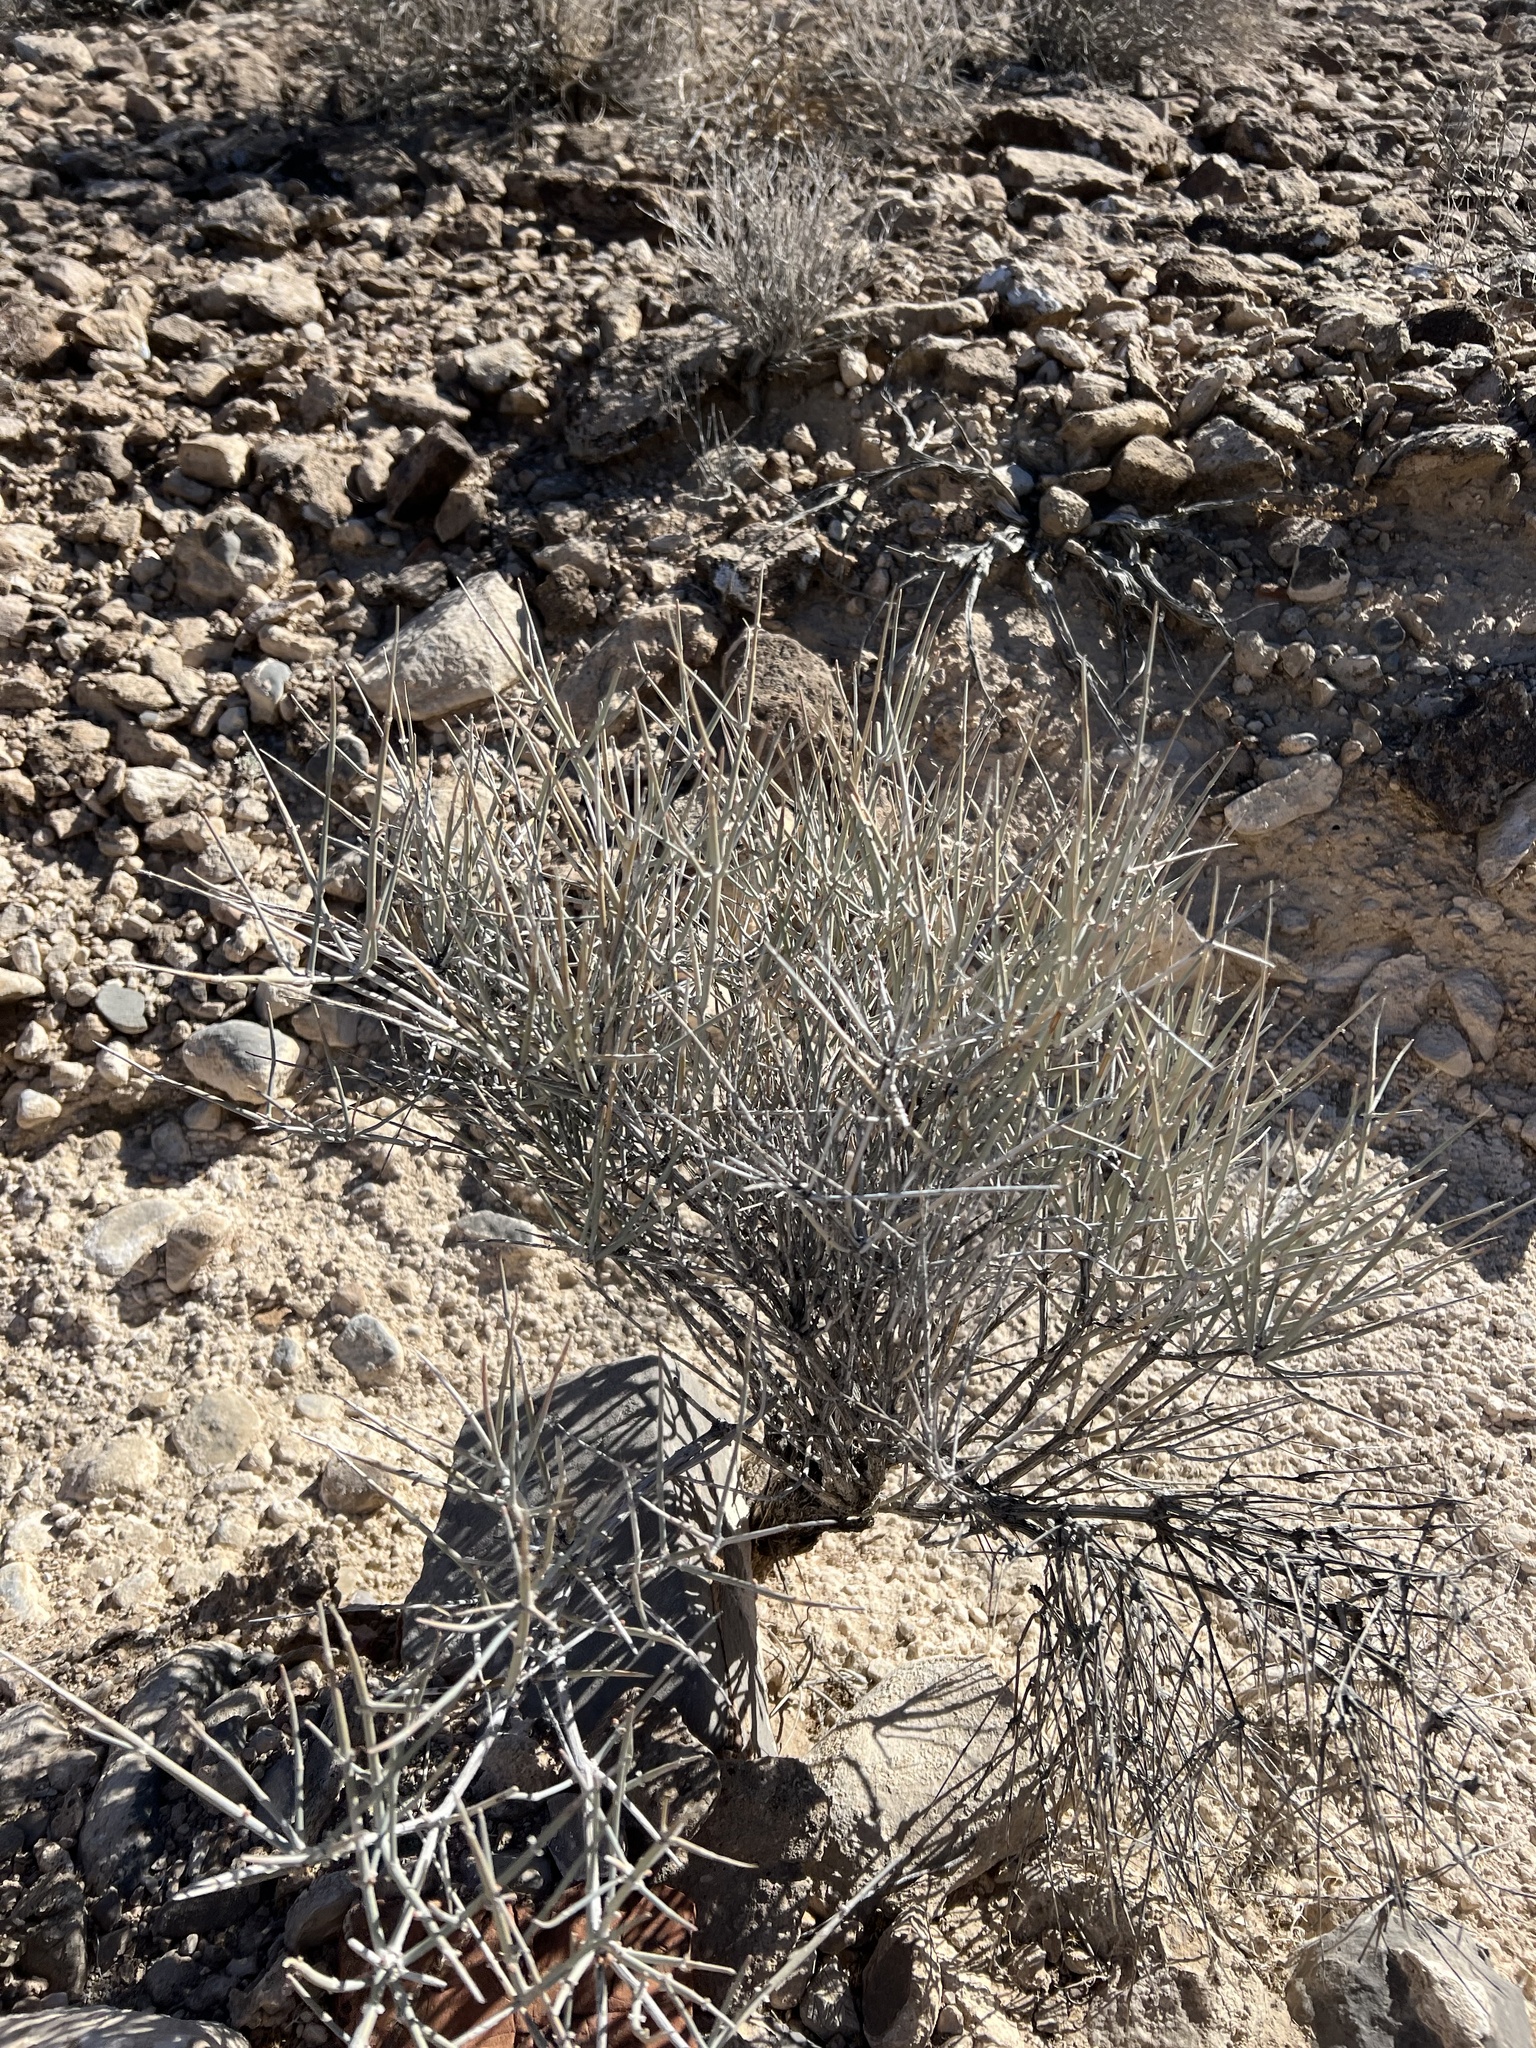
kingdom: Plantae
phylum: Tracheophyta
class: Gnetopsida
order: Ephedrales
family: Ephedraceae
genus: Ephedra
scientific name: Ephedra nevadensis
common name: Gray ephedra
